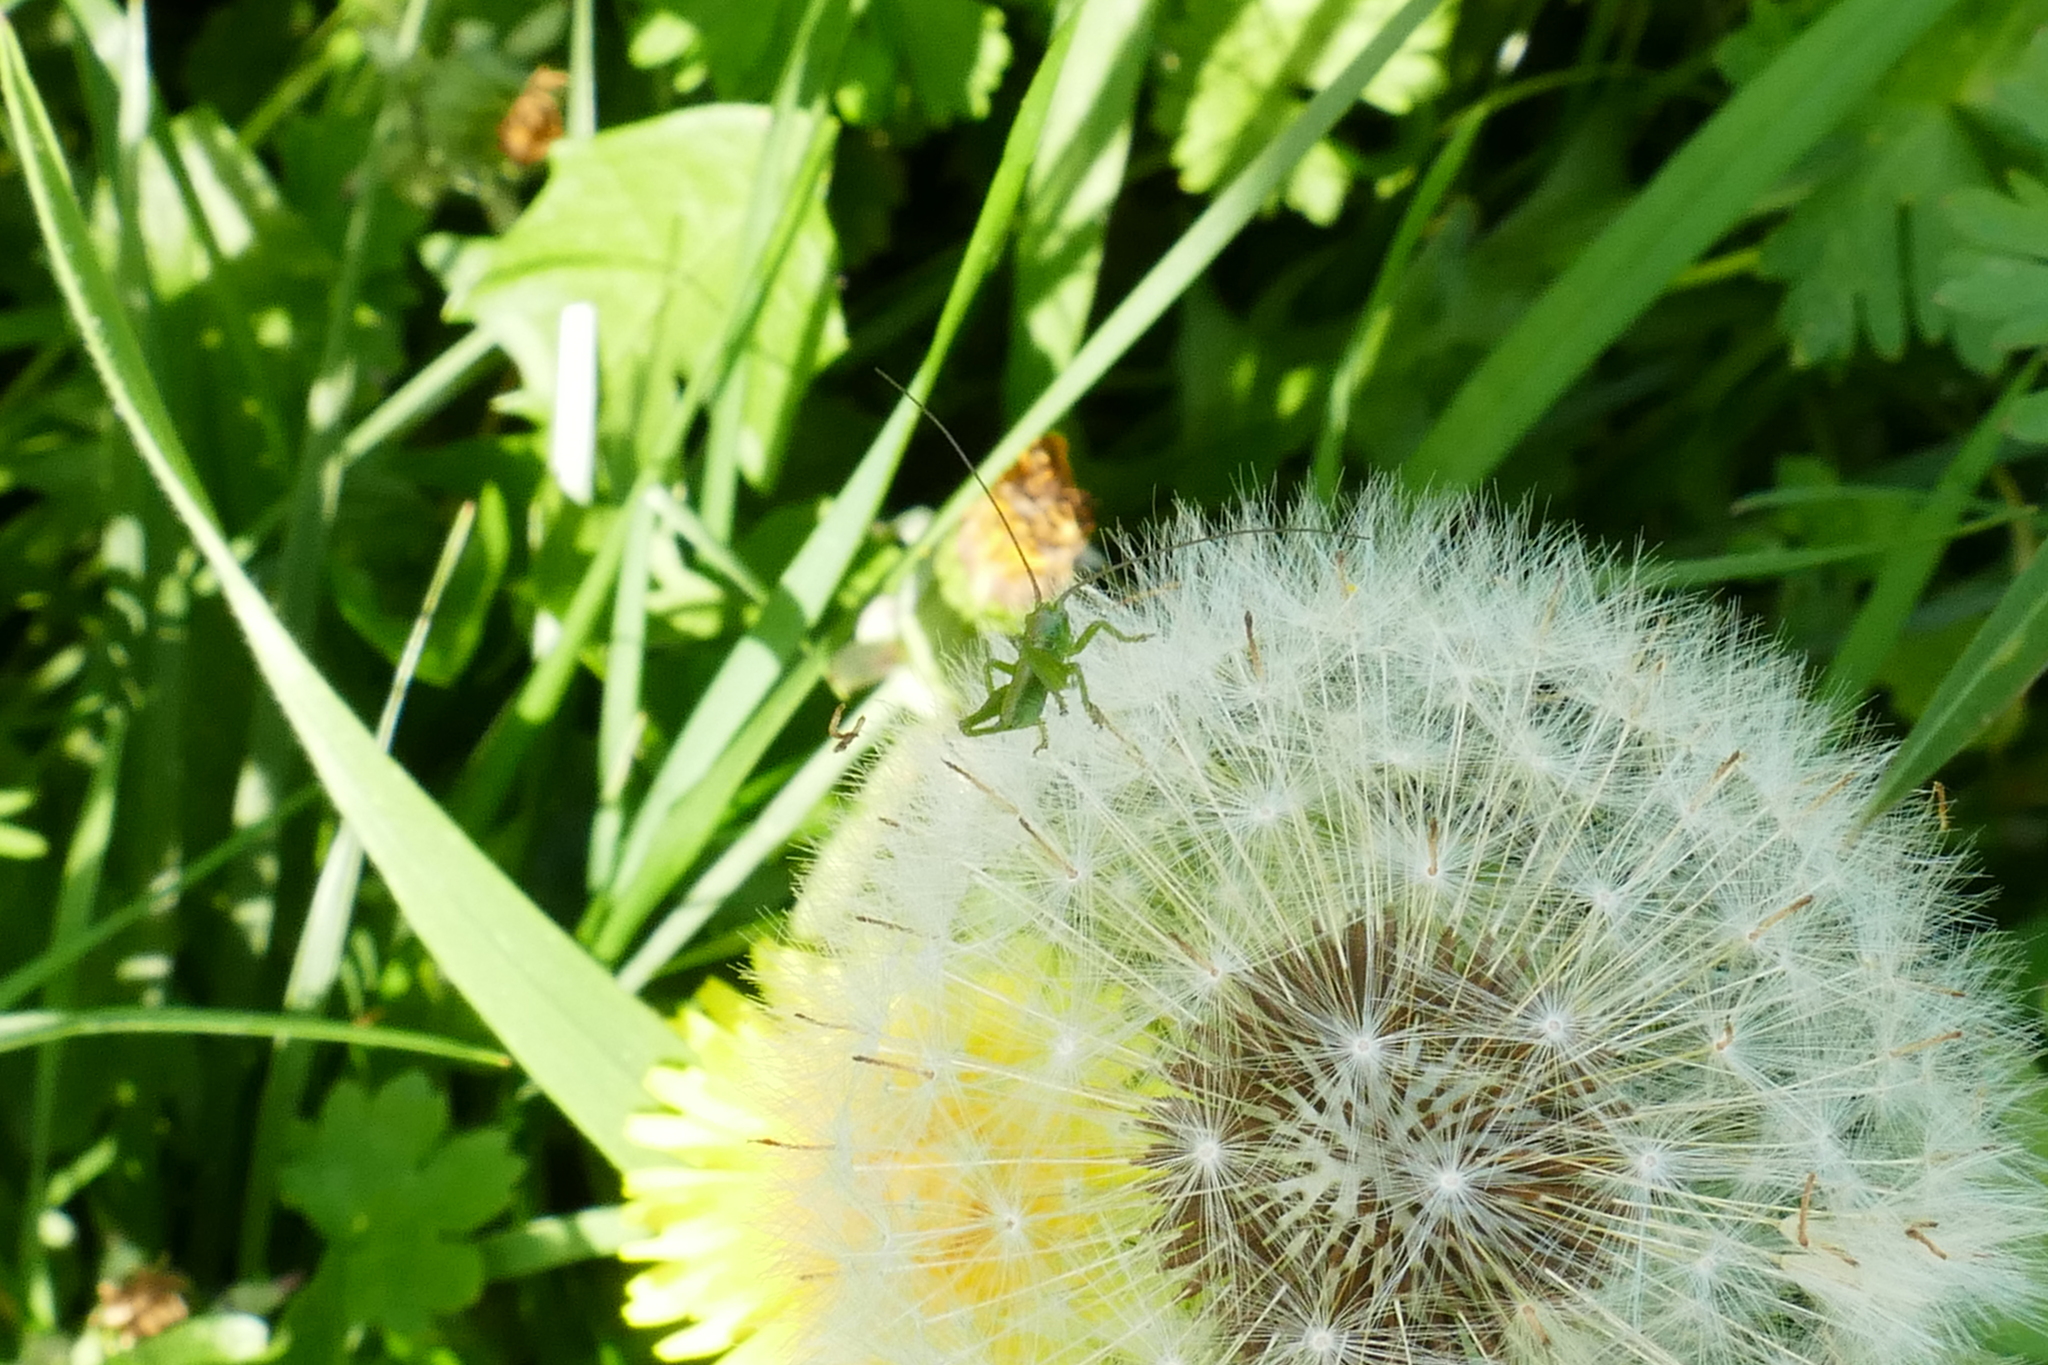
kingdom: Animalia
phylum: Arthropoda
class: Insecta
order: Orthoptera
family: Tettigoniidae
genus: Tettigonia
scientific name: Tettigonia viridissima
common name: Great green bush-cricket
